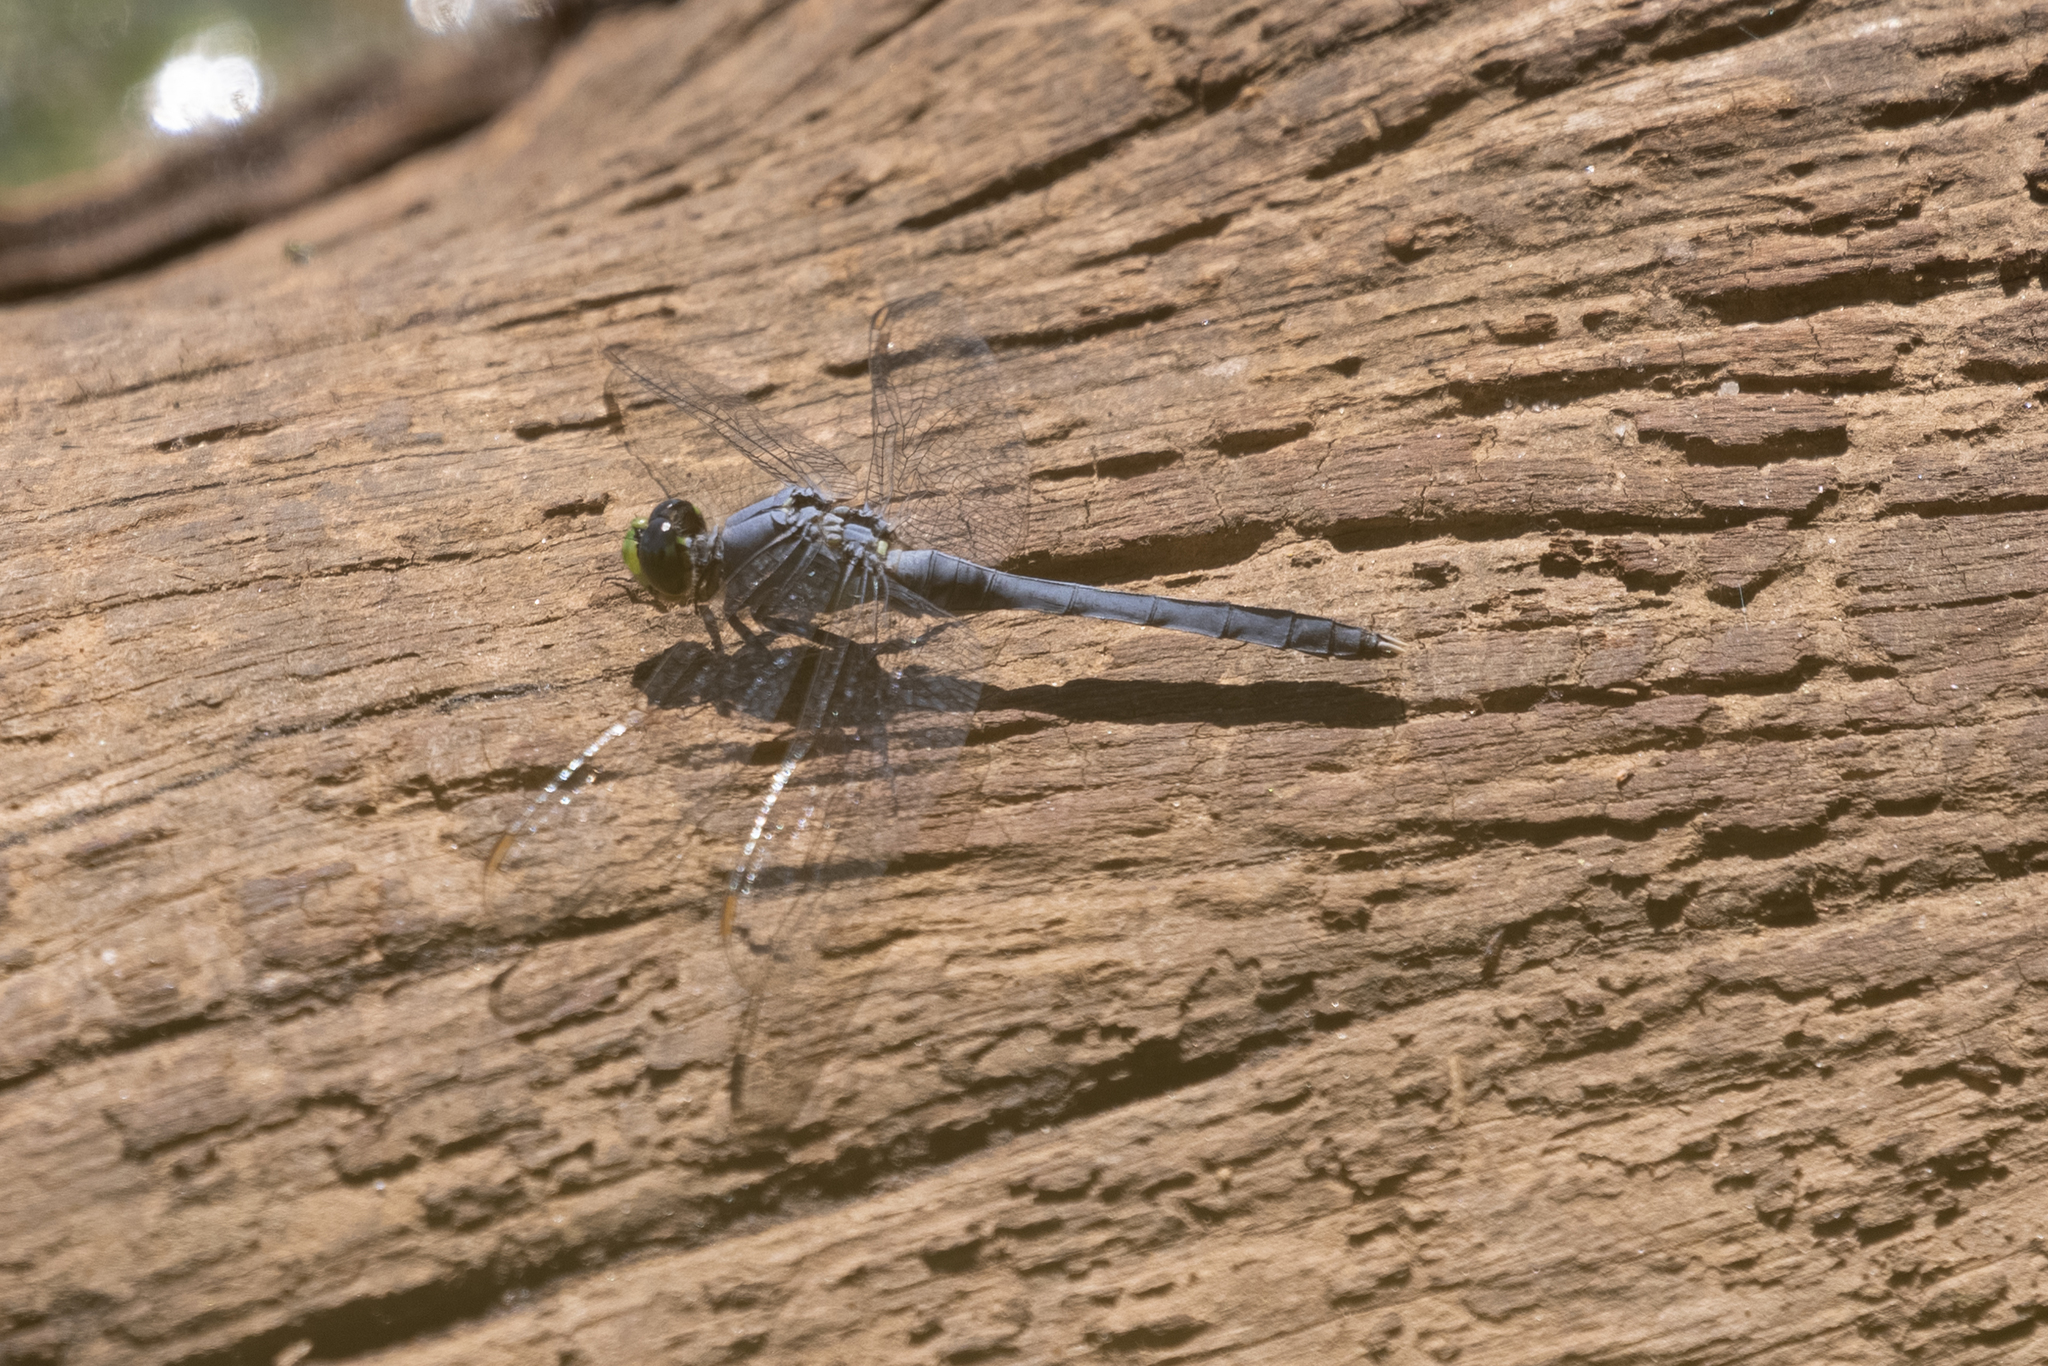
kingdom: Animalia
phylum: Arthropoda
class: Insecta
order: Odonata
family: Libellulidae
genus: Erythemis
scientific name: Erythemis simplicicollis
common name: Eastern pondhawk
